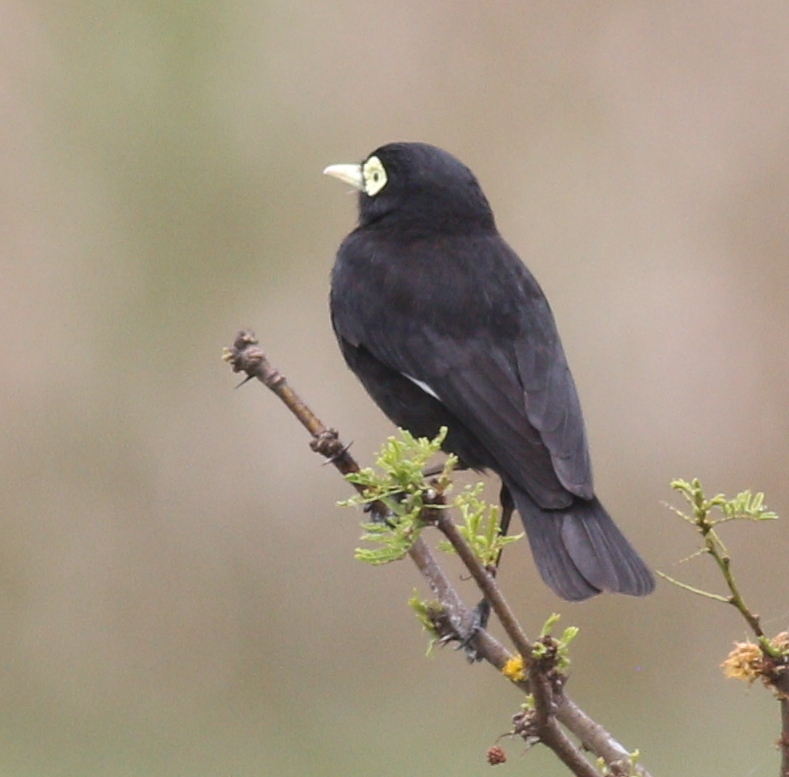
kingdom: Animalia
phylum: Chordata
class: Aves
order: Passeriformes
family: Tyrannidae
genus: Hymenops
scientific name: Hymenops perspicillatus
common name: Spectacled tyrant
